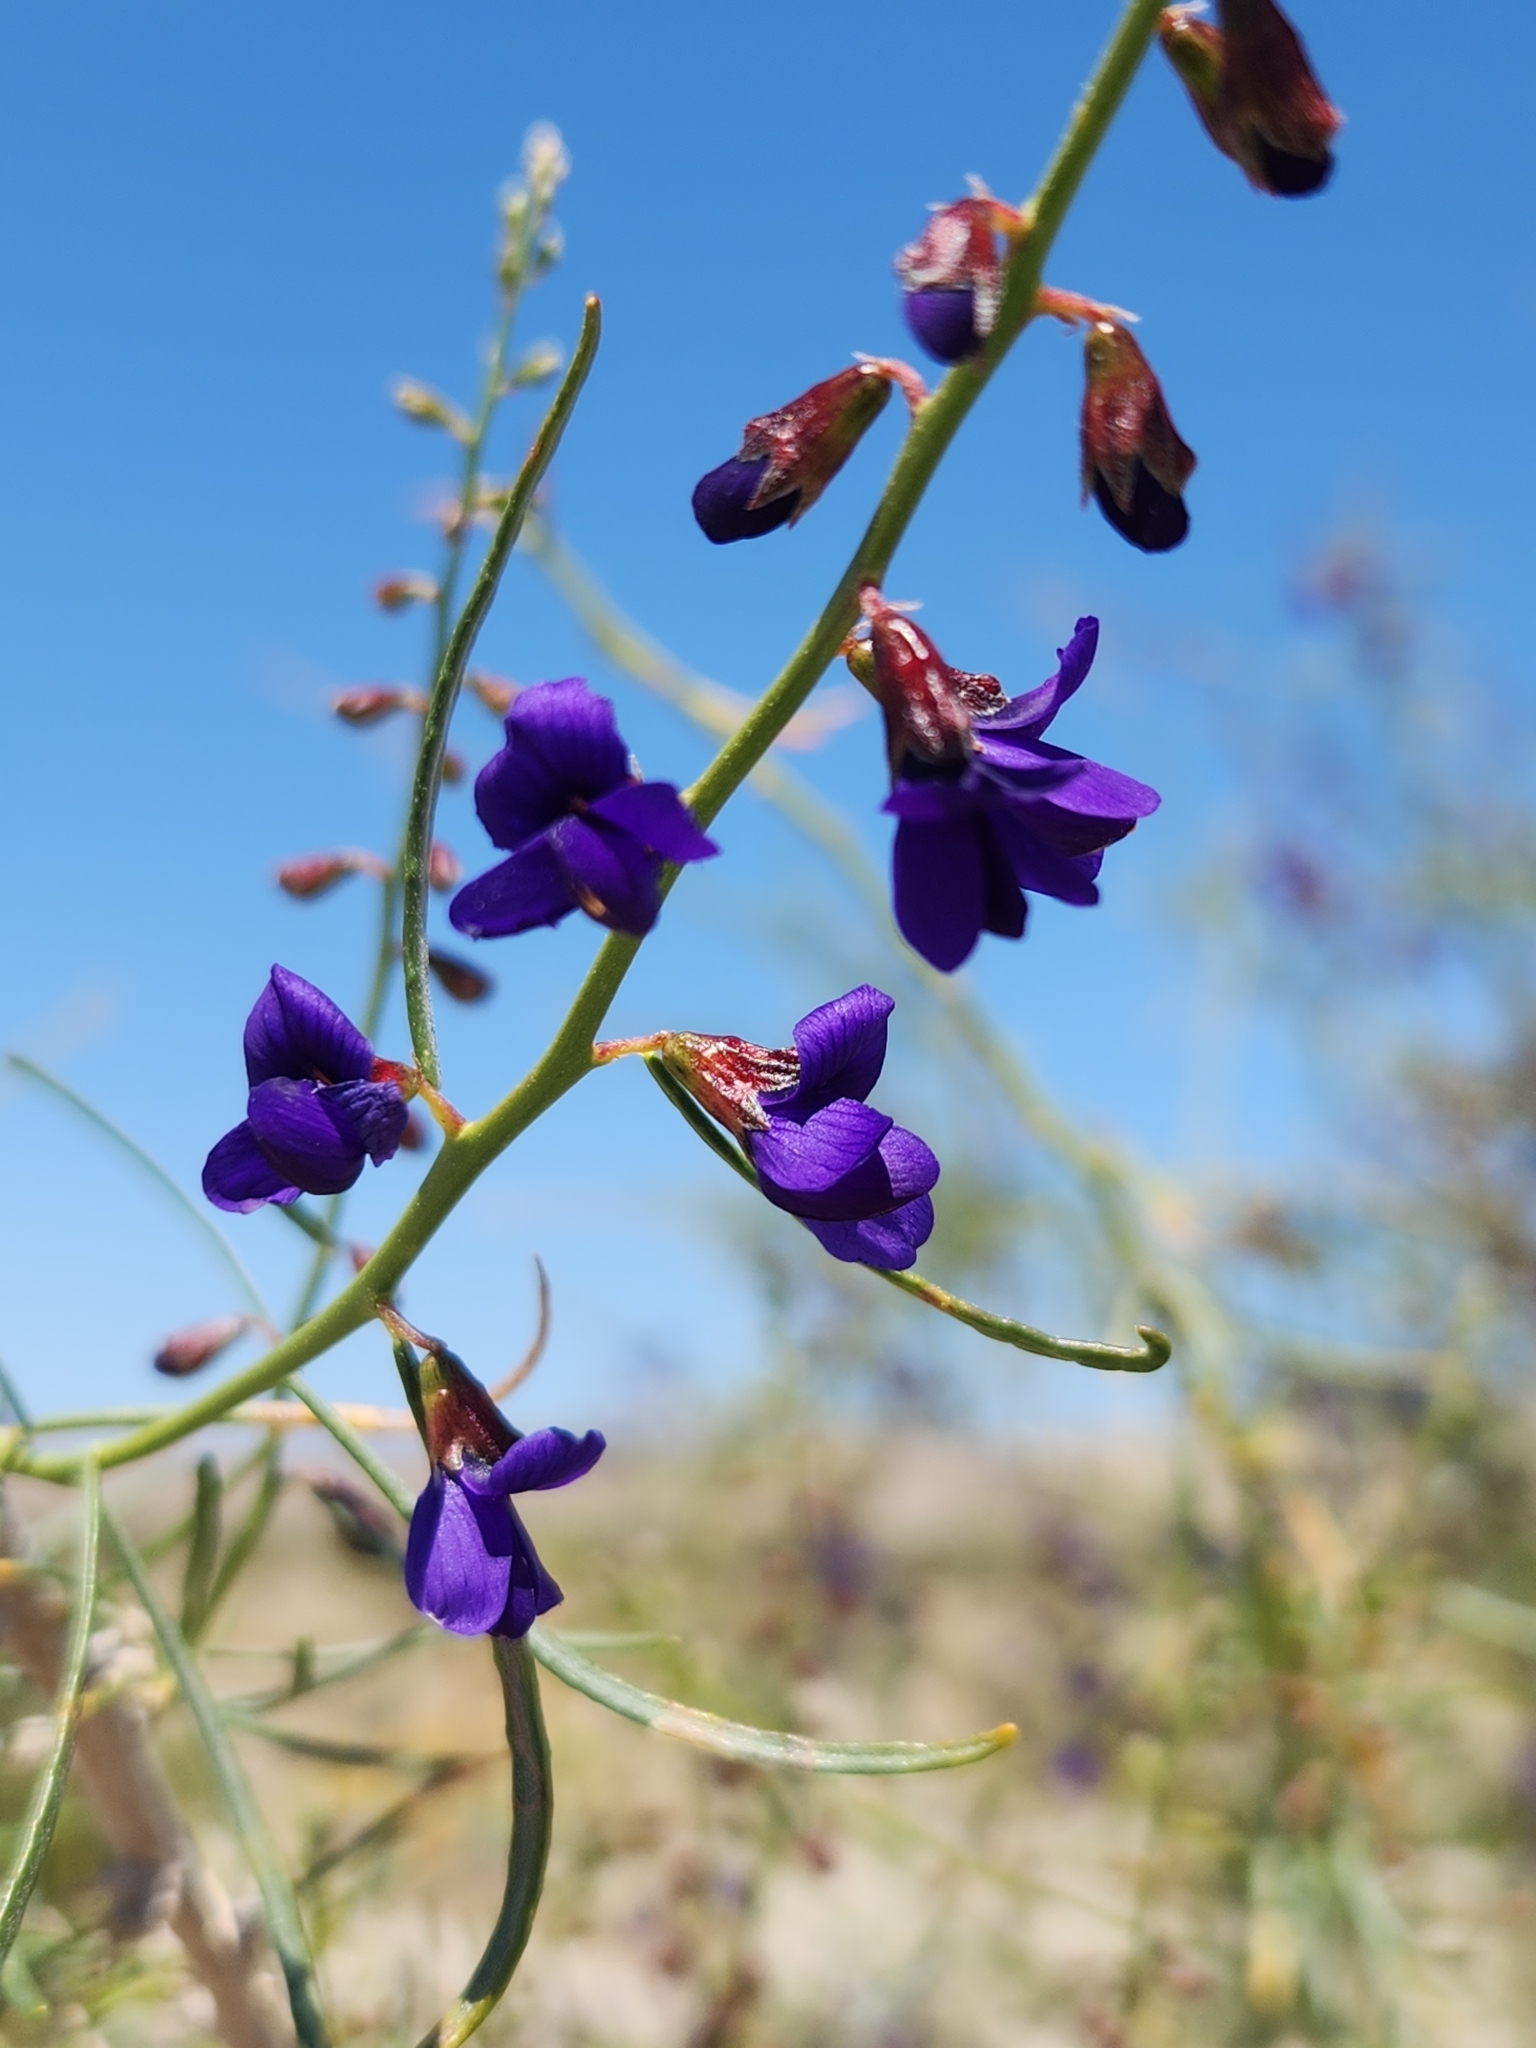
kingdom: Plantae
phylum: Tracheophyta
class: Magnoliopsida
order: Fabales
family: Fabaceae
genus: Psorothamnus
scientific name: Psorothamnus schottii
